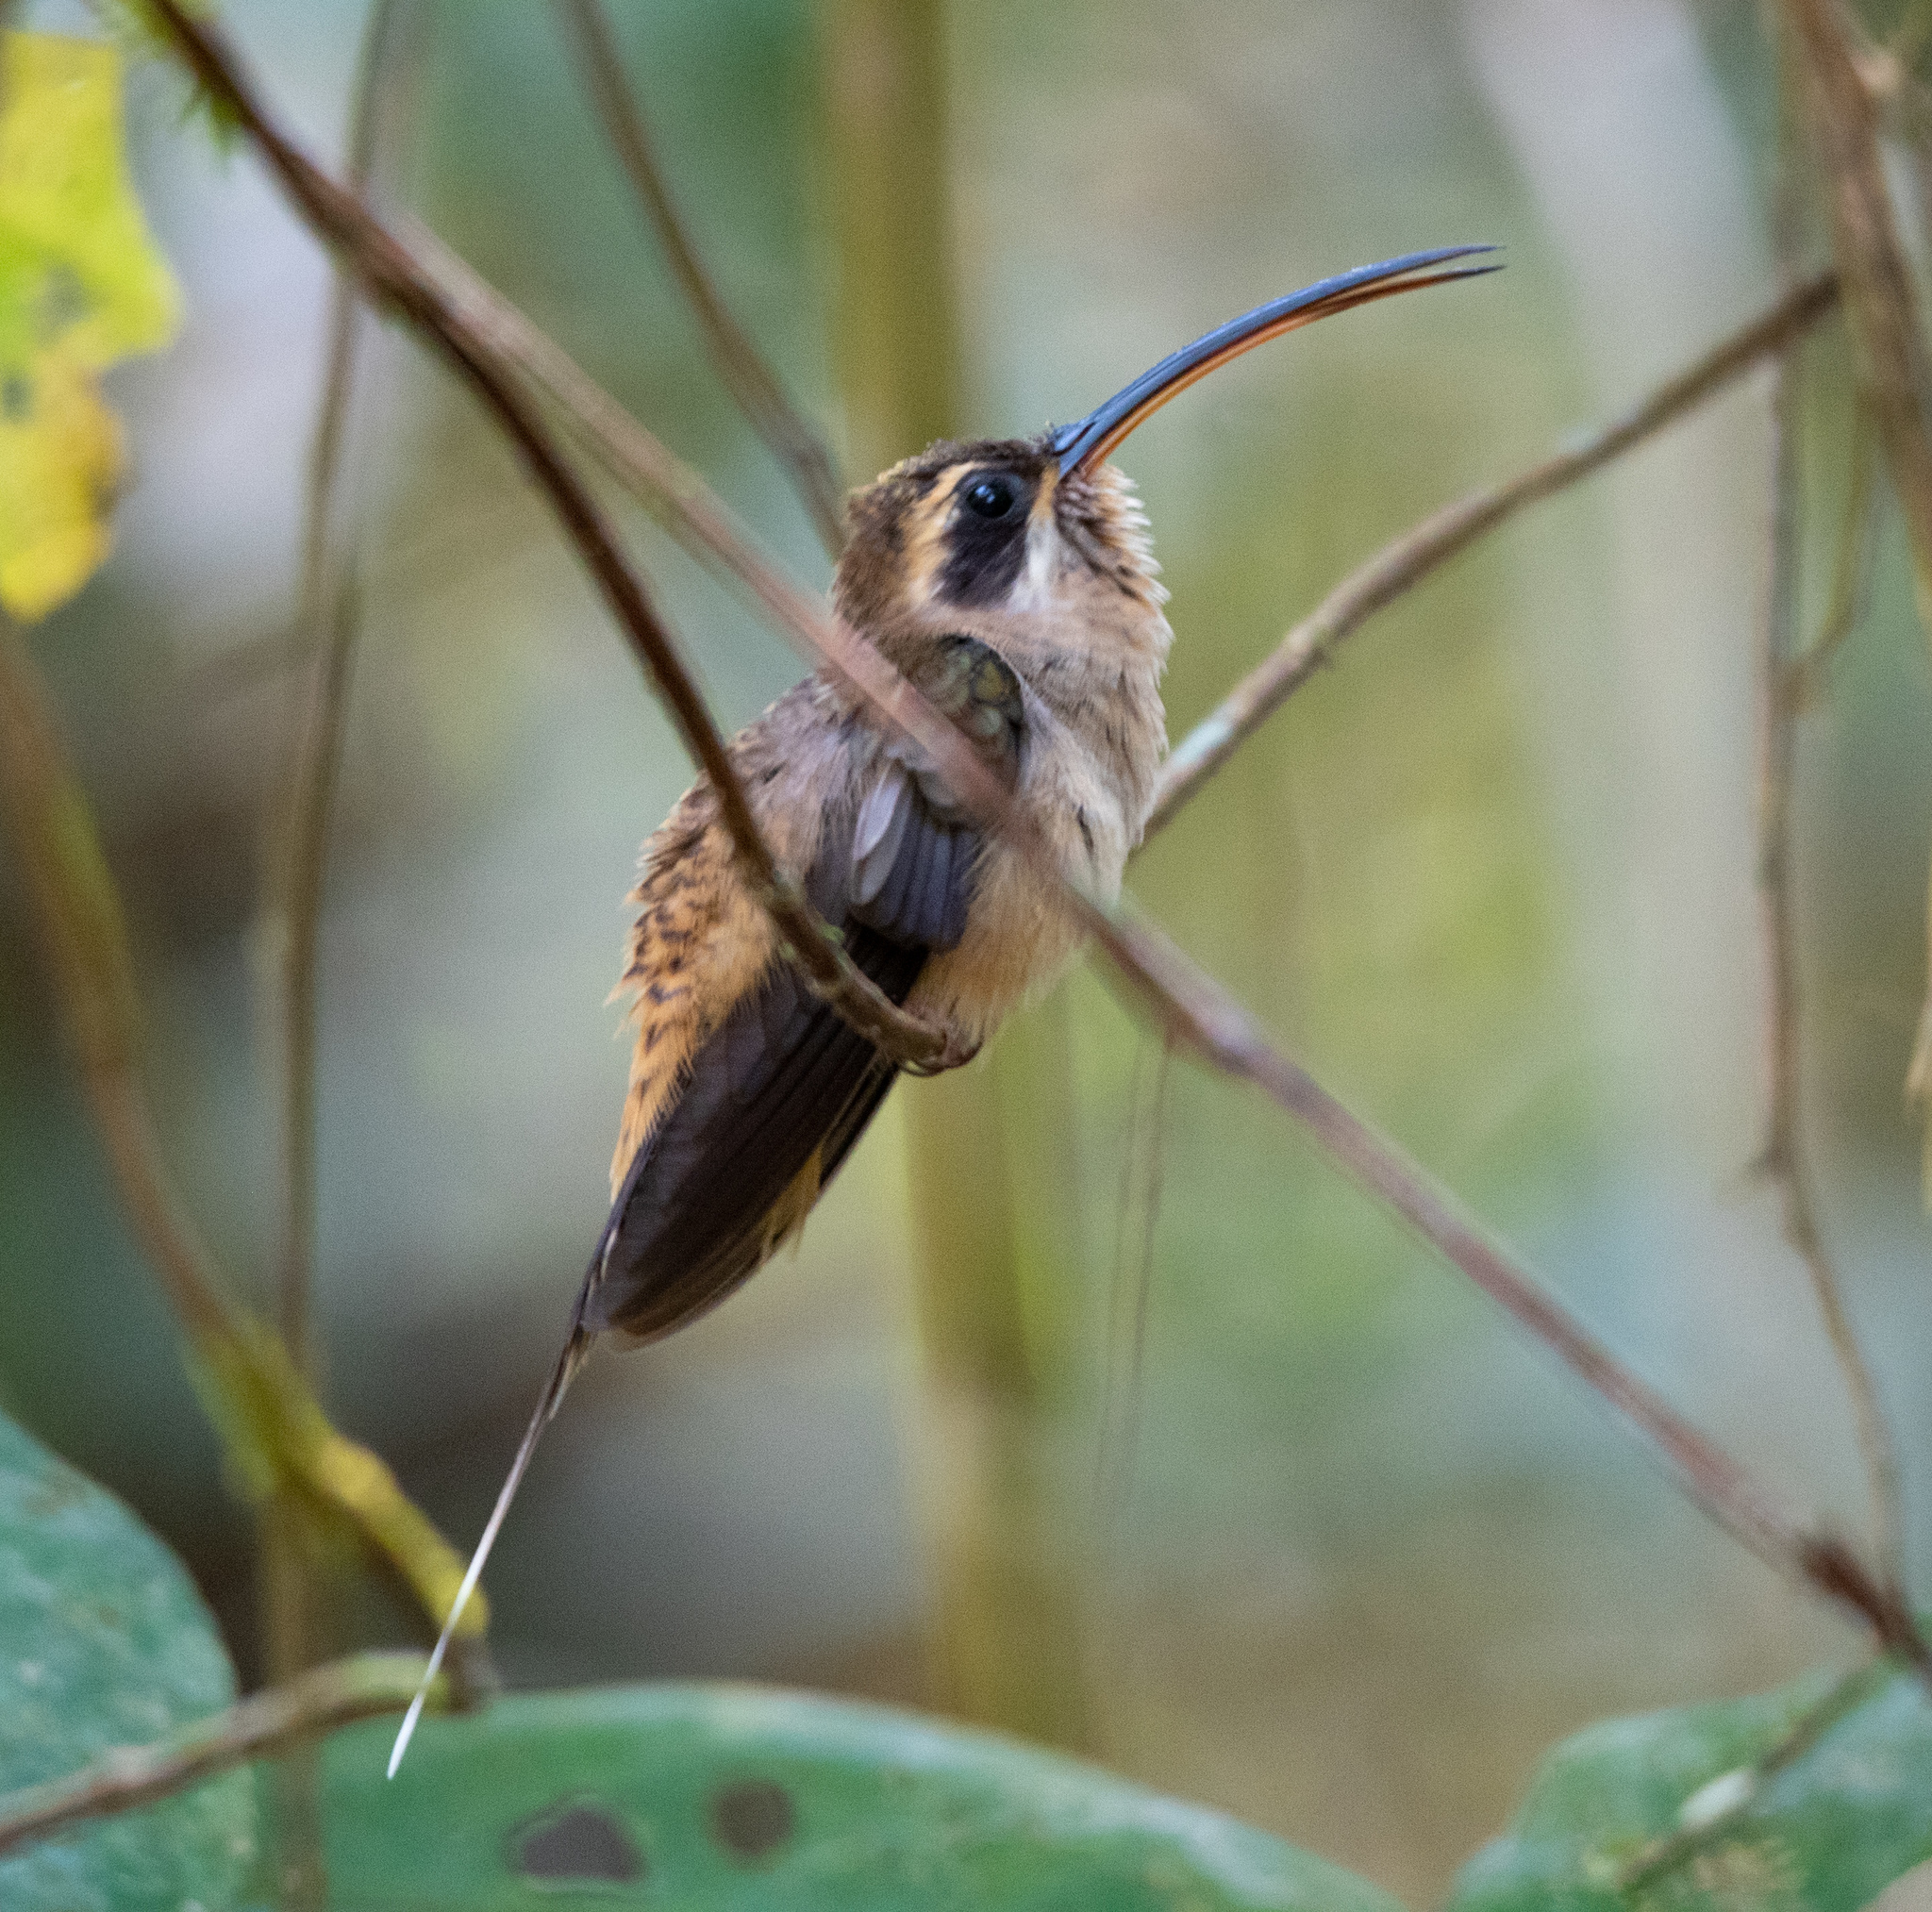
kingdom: Animalia
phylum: Chordata
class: Aves
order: Apodiformes
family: Trochilidae
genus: Phaethornis
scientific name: Phaethornis longirostris
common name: Long-billed hermit
